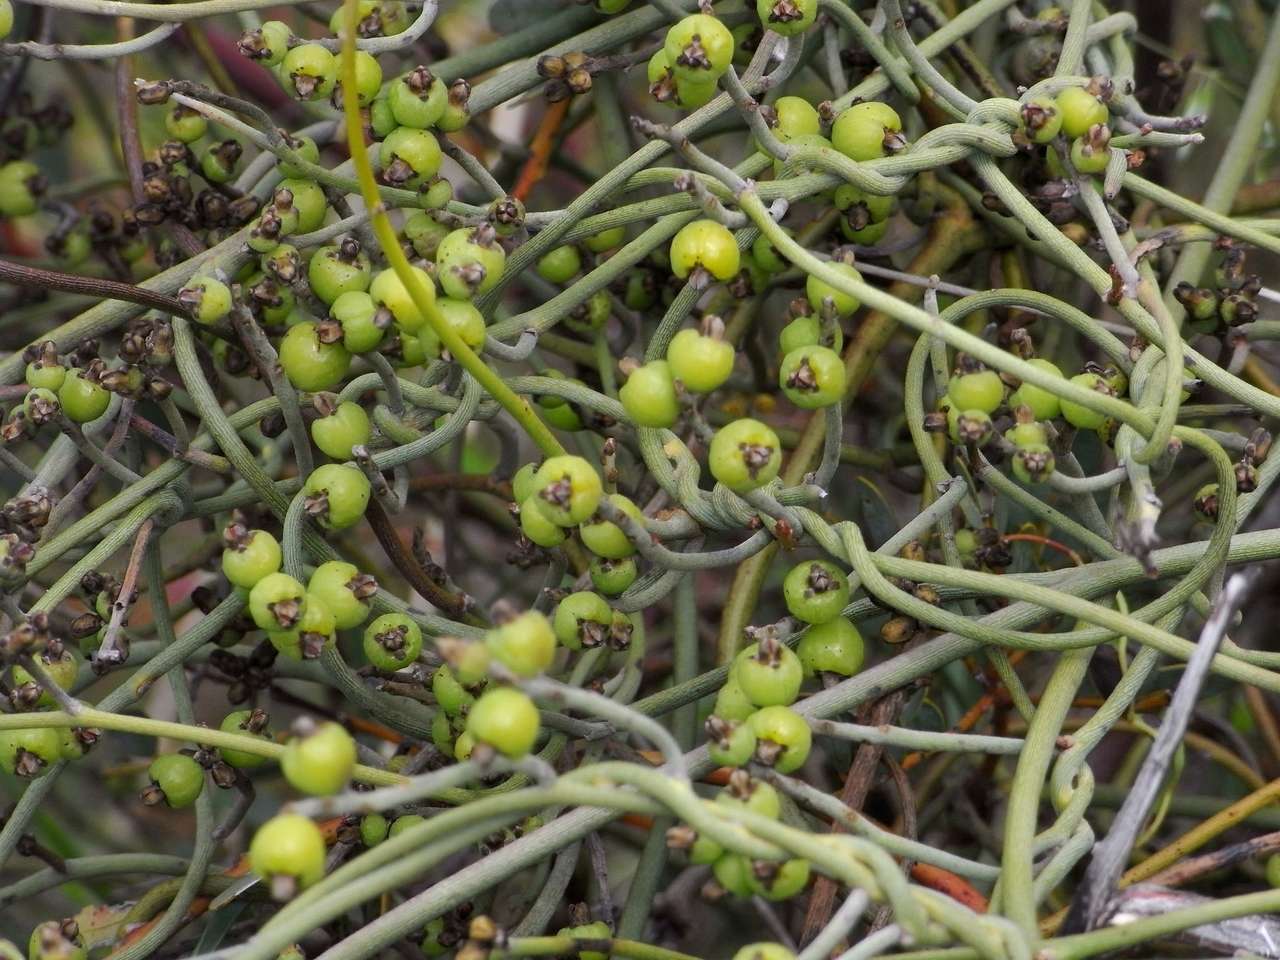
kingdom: Plantae
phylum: Tracheophyta
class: Magnoliopsida
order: Laurales
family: Lauraceae
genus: Cassytha
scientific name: Cassytha melantha
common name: Mallee stranglevine
